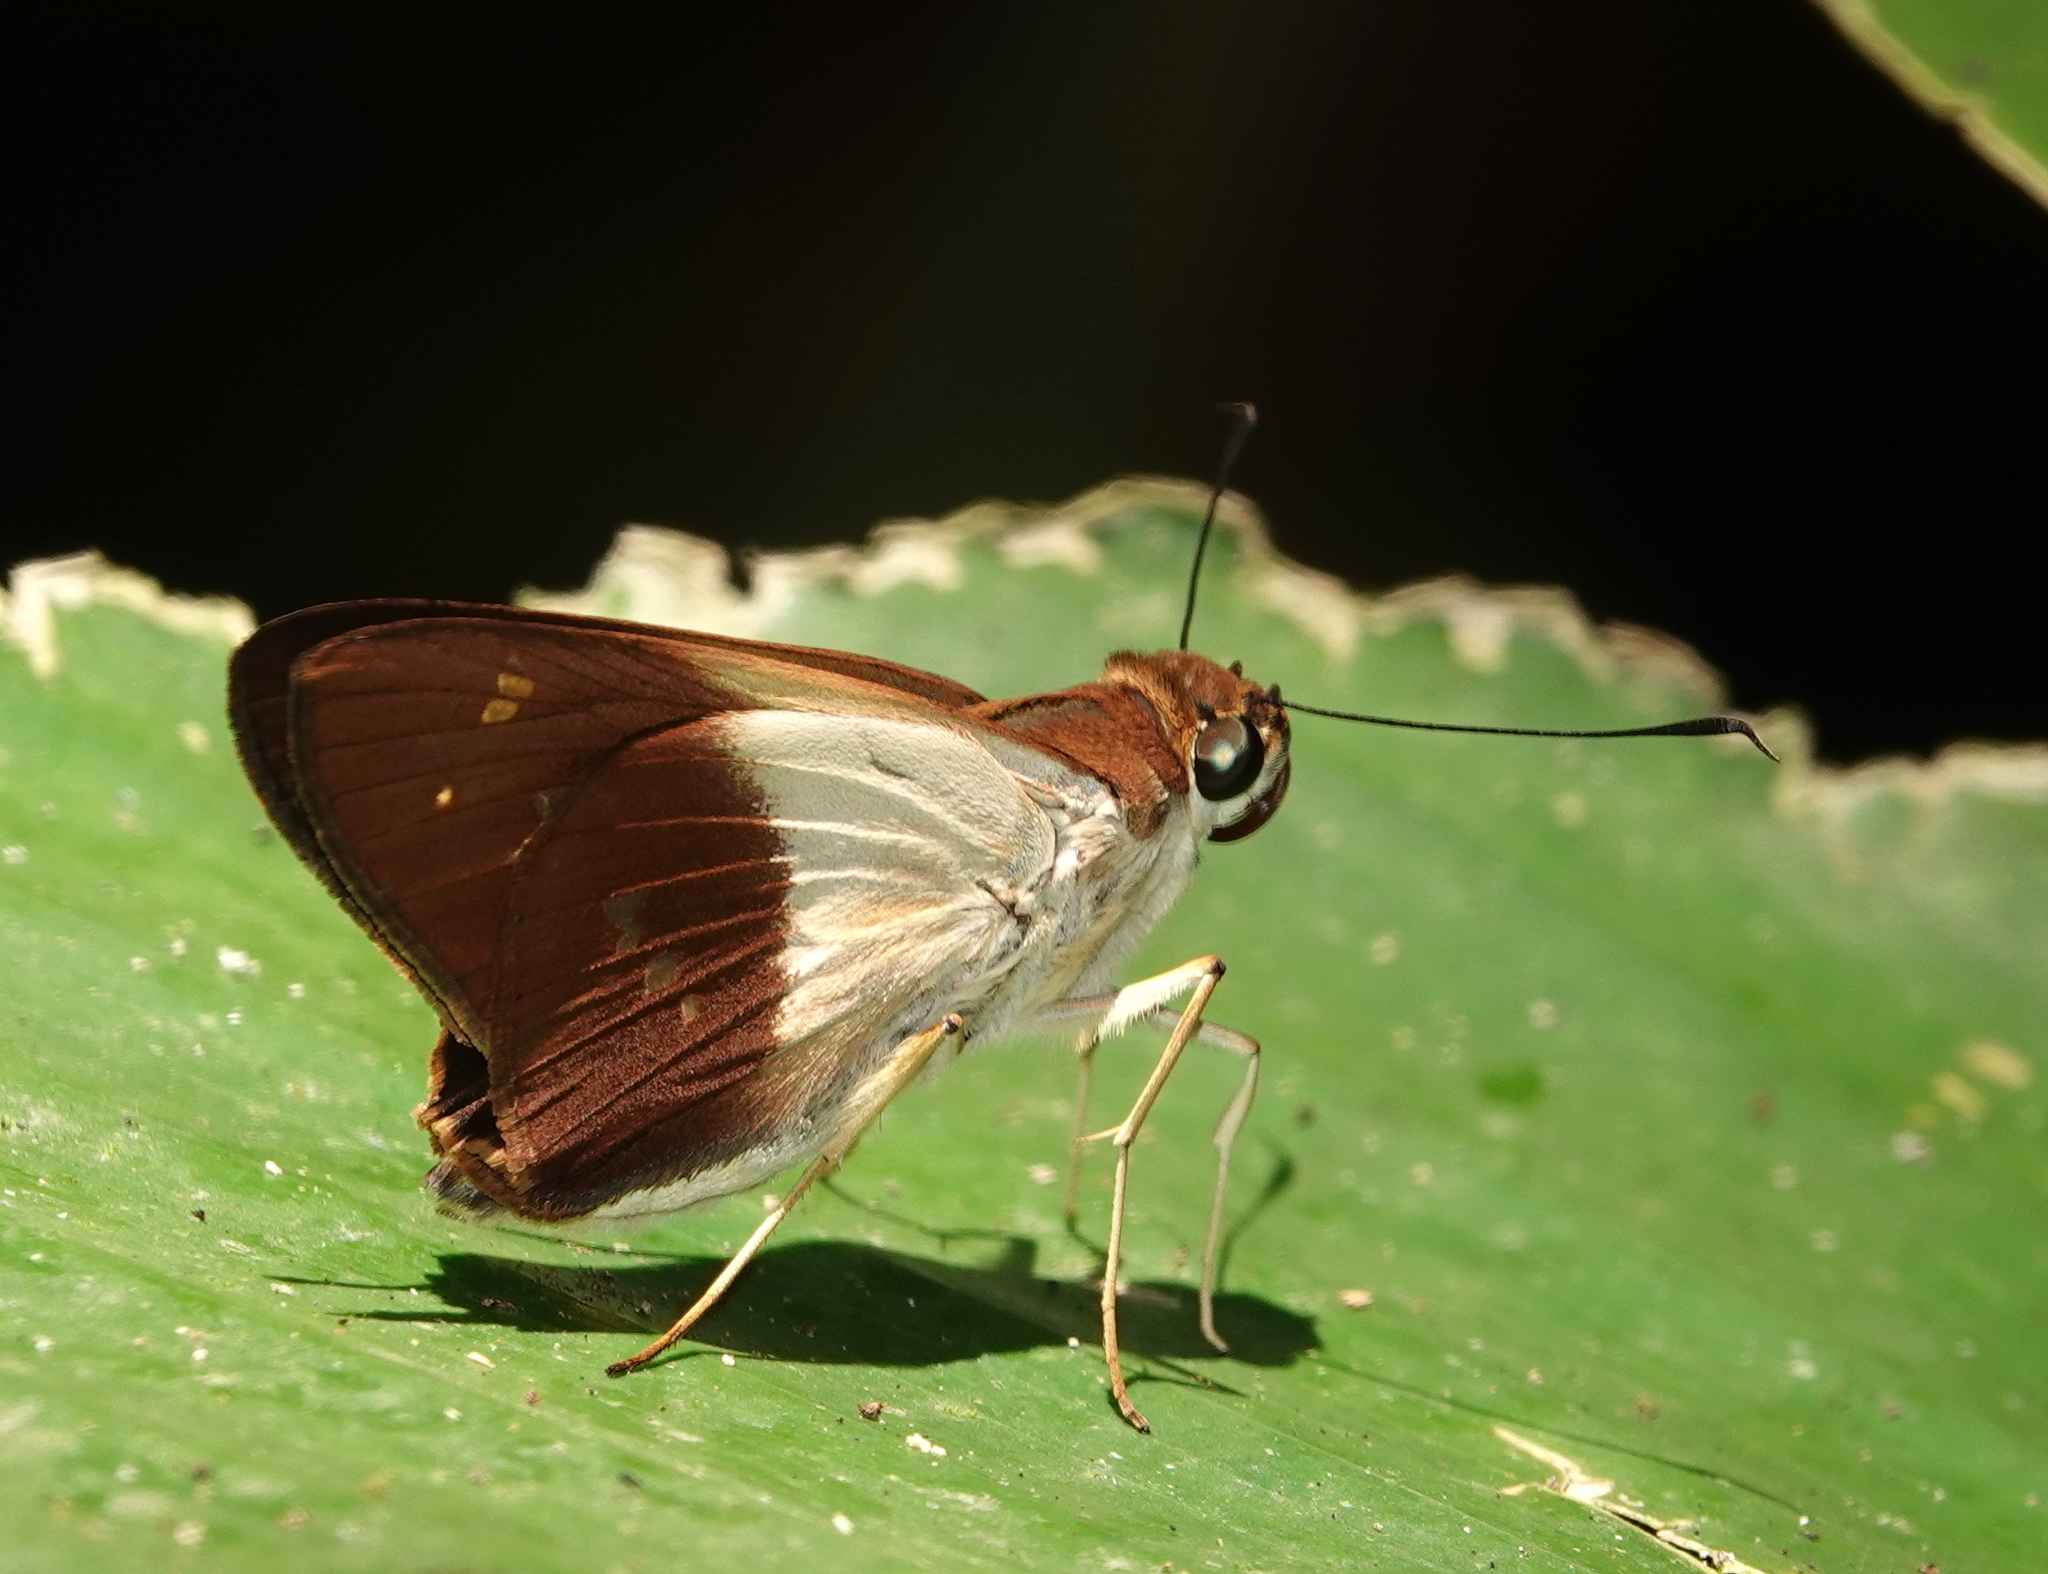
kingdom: Animalia
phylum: Arthropoda
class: Insecta
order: Lepidoptera
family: Hesperiidae
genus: Calpodes
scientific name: Calpodes
